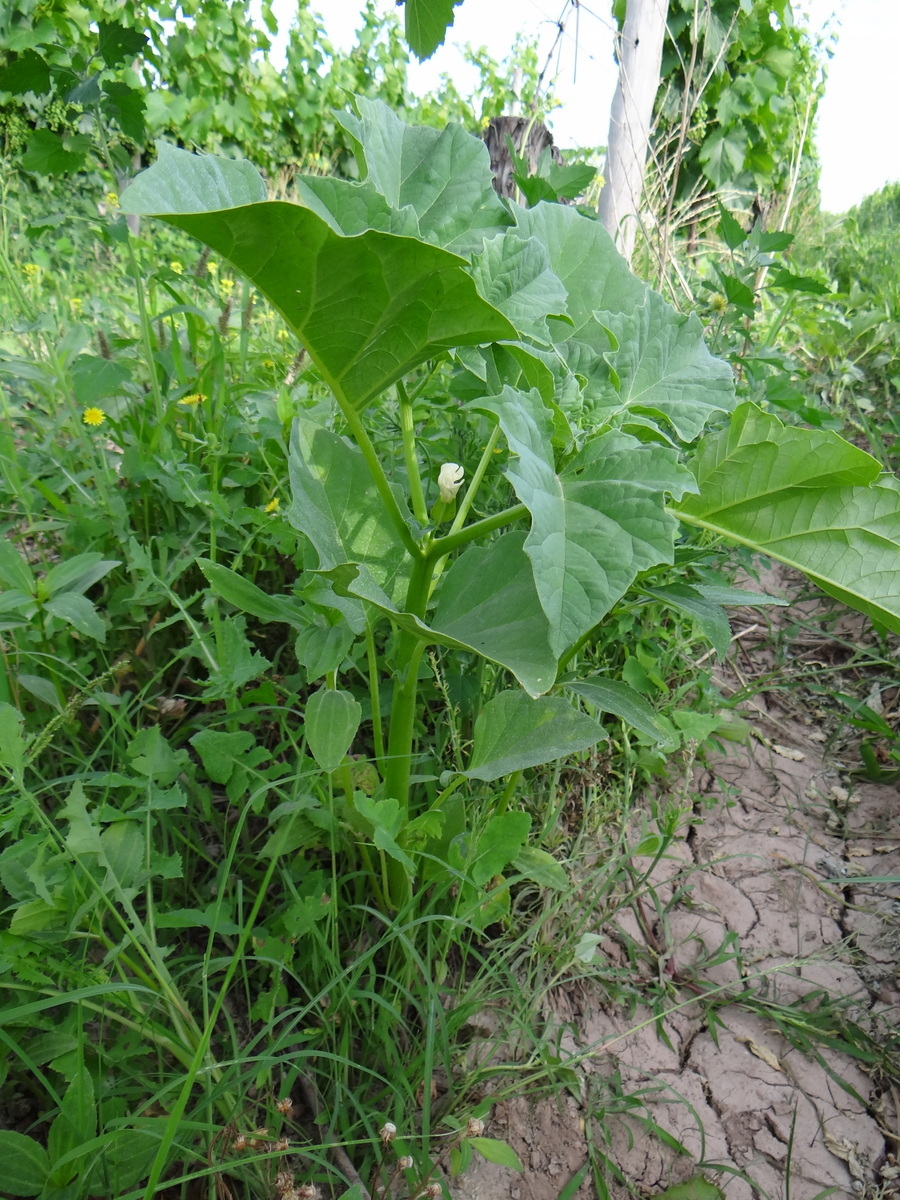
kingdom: Plantae
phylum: Tracheophyta
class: Magnoliopsida
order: Solanales
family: Solanaceae
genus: Datura
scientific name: Datura ferox
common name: Angel's-trumpets
